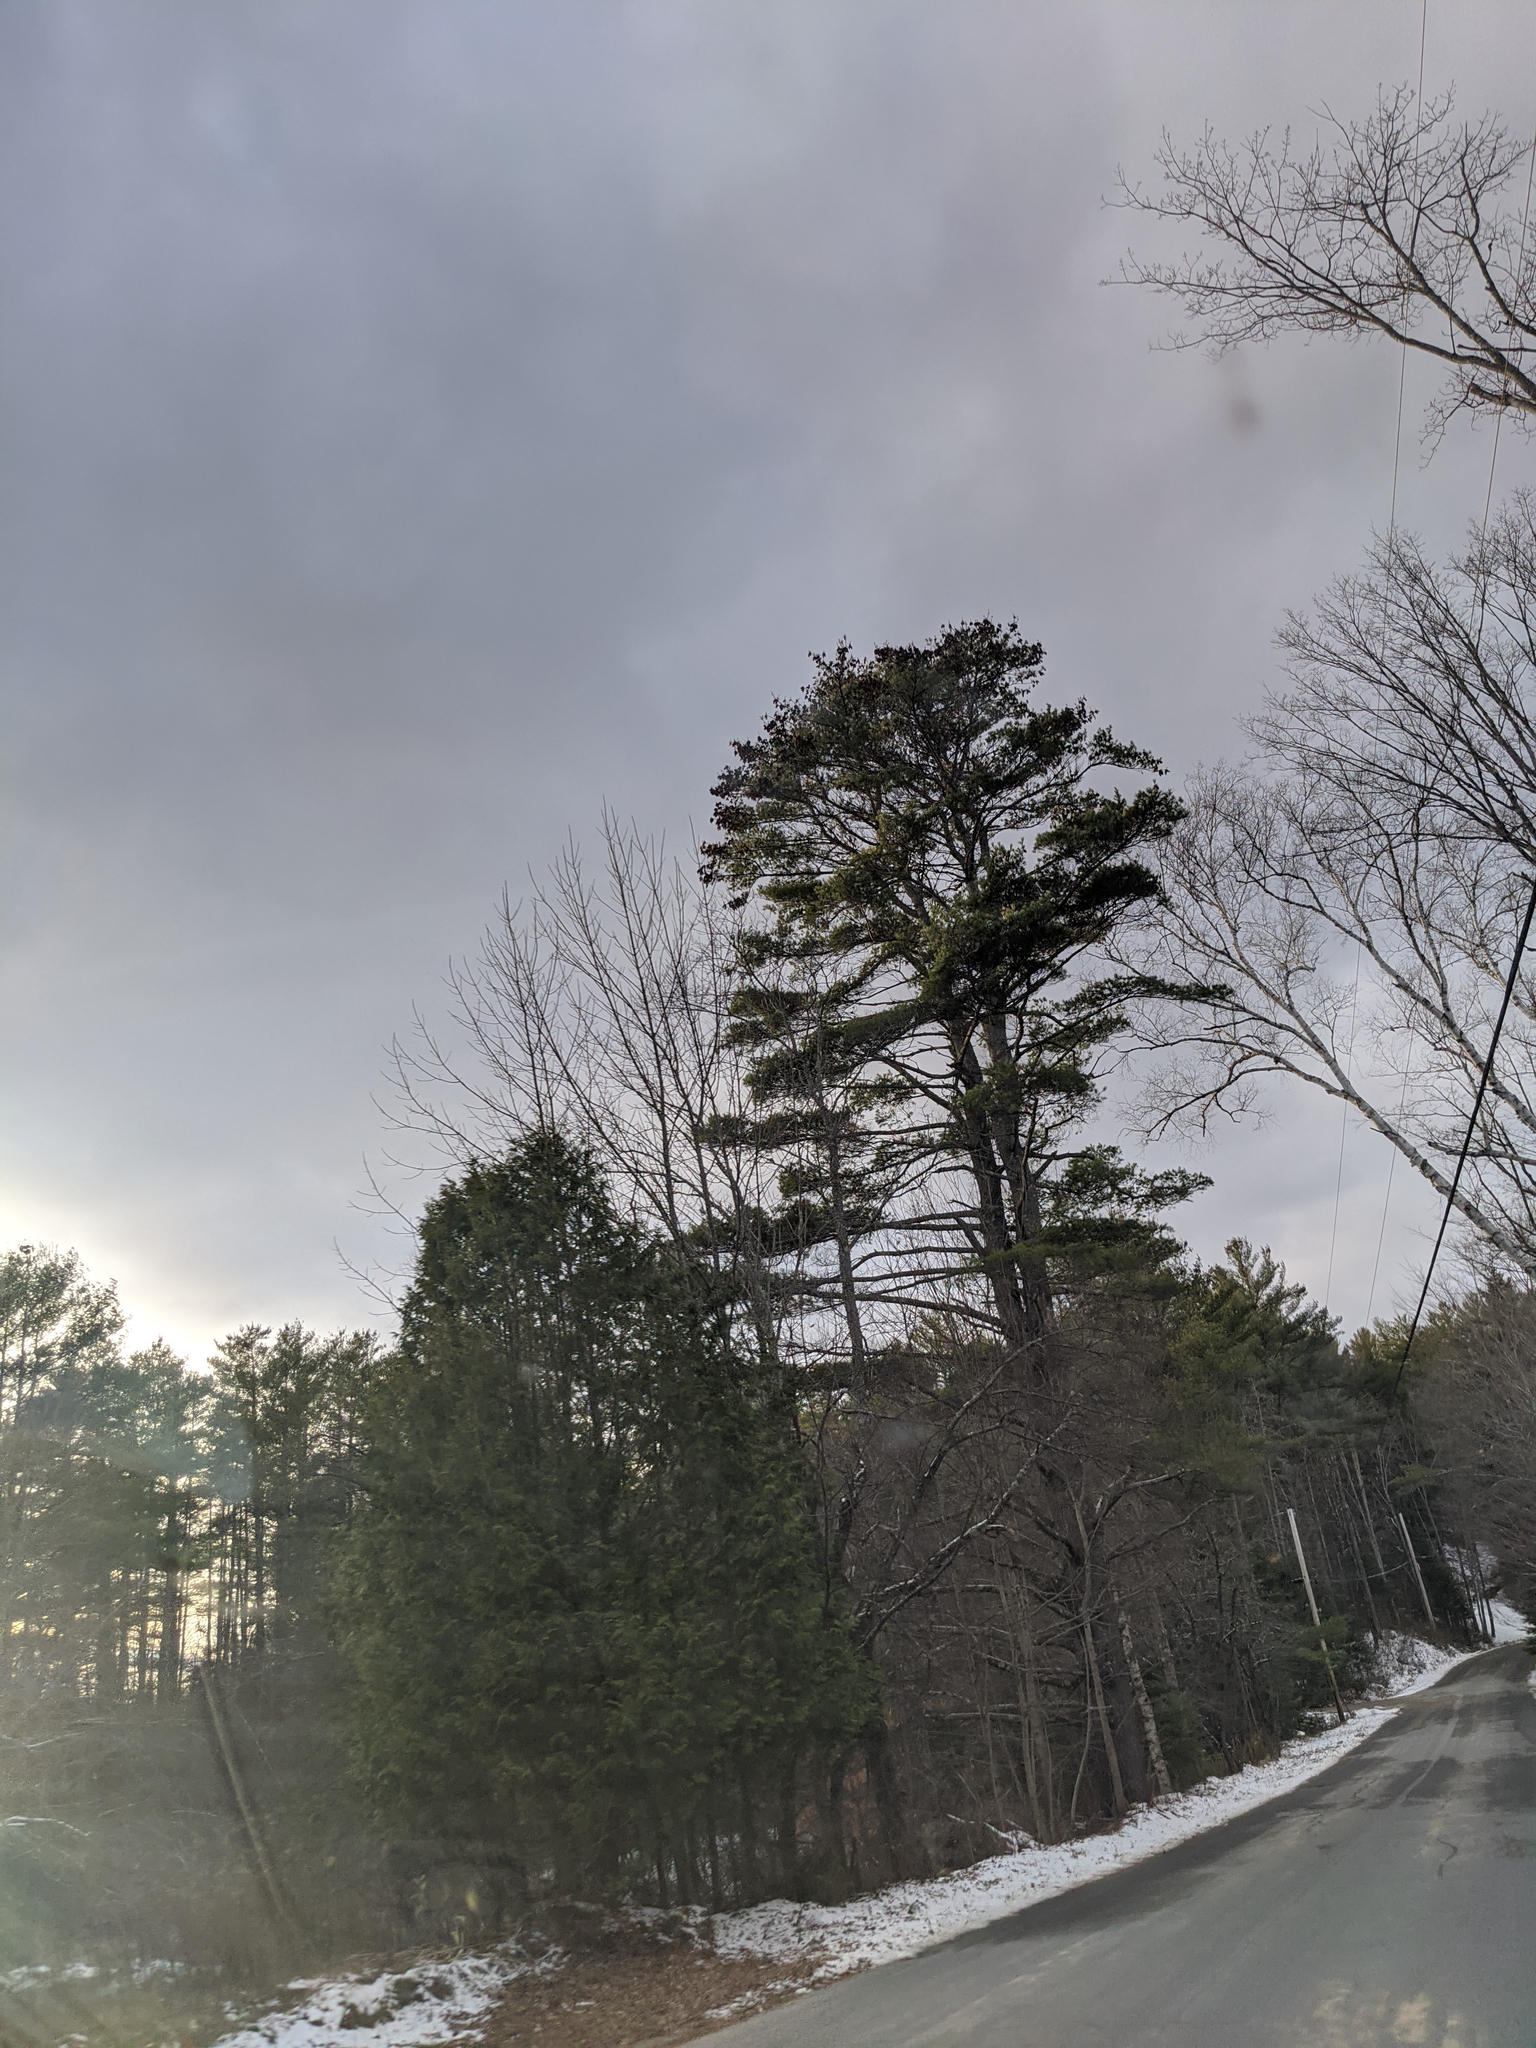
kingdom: Plantae
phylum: Tracheophyta
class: Pinopsida
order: Pinales
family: Pinaceae
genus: Pinus
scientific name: Pinus strobus
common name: Weymouth pine
